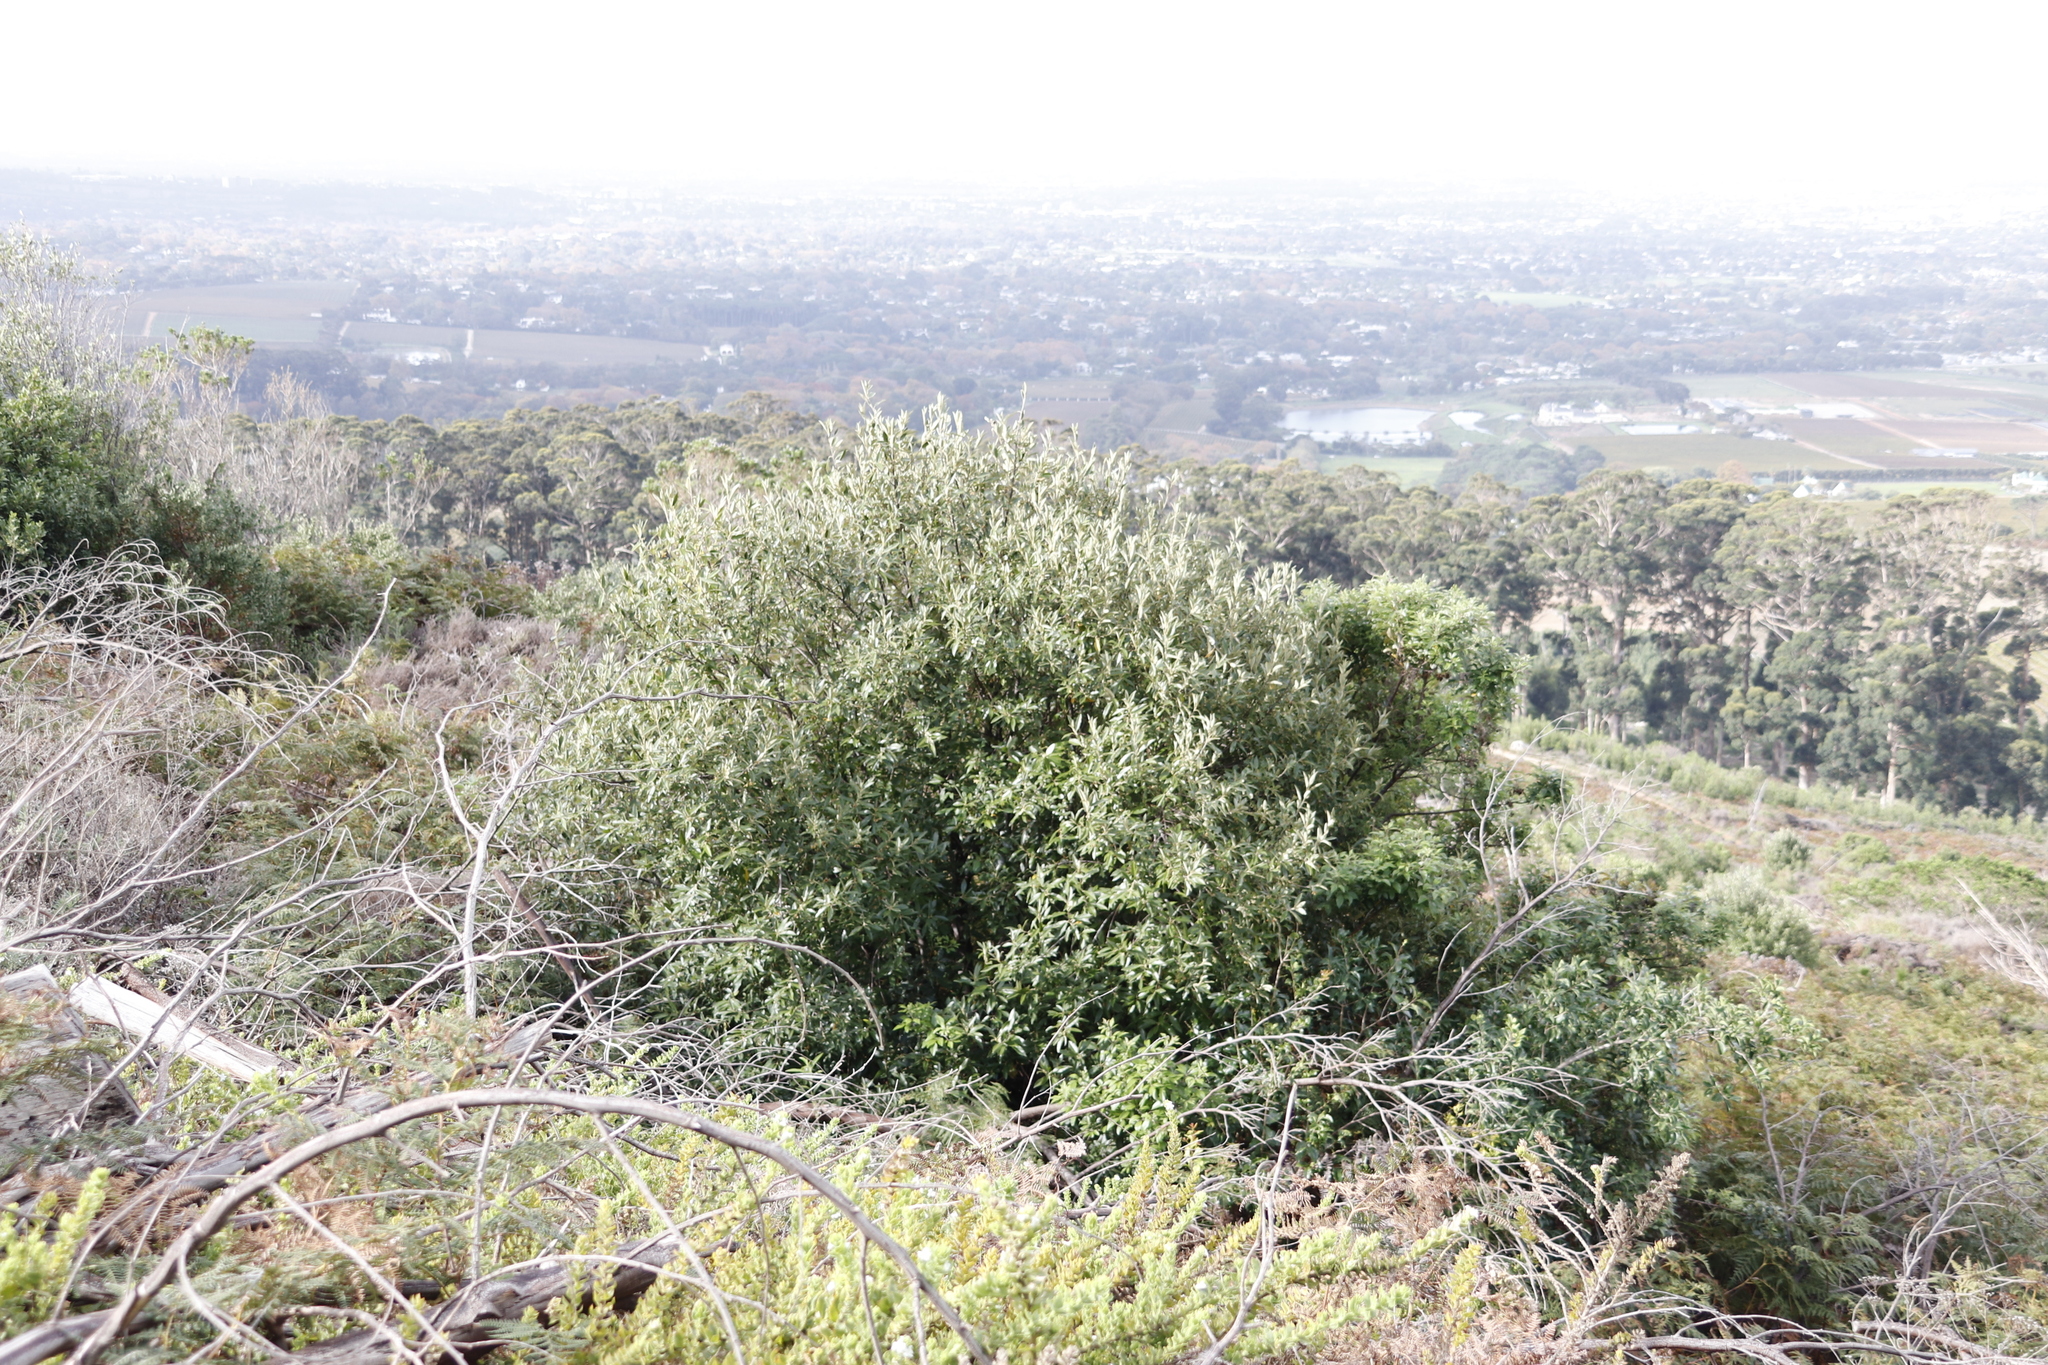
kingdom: Plantae
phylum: Tracheophyta
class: Magnoliopsida
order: Malpighiales
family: Achariaceae
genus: Kiggelaria
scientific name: Kiggelaria africana
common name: Wild peach
